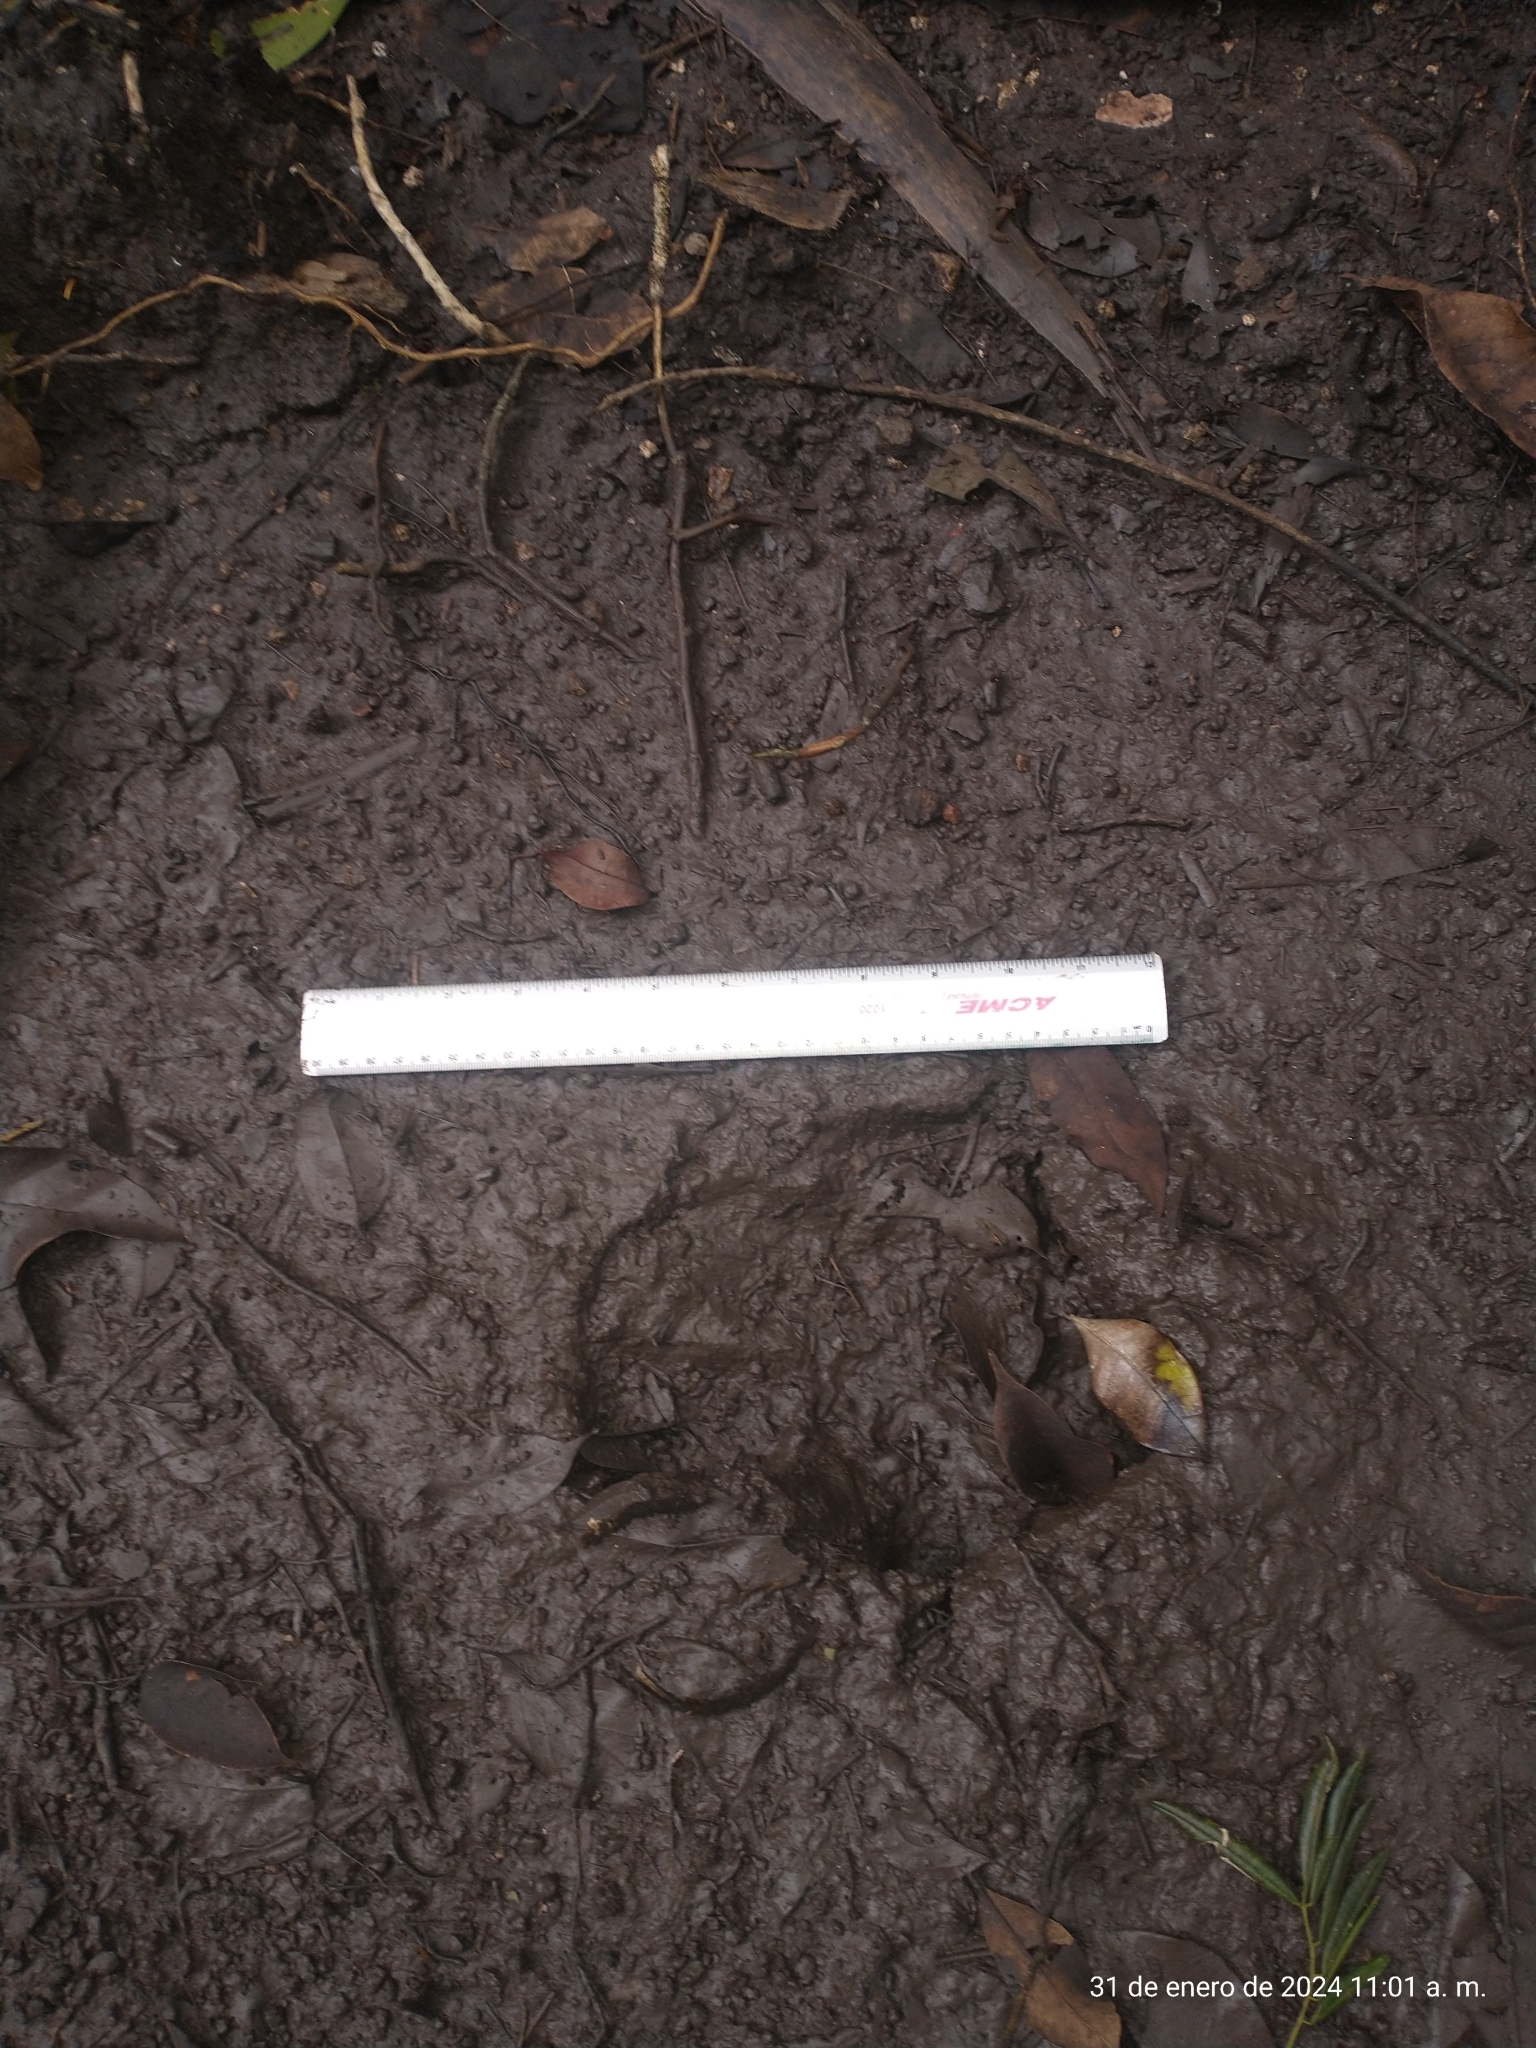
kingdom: Animalia
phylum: Chordata
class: Mammalia
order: Perissodactyla
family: Tapiridae
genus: Tapirella
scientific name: Tapirella bairdii
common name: Baird's tapir
